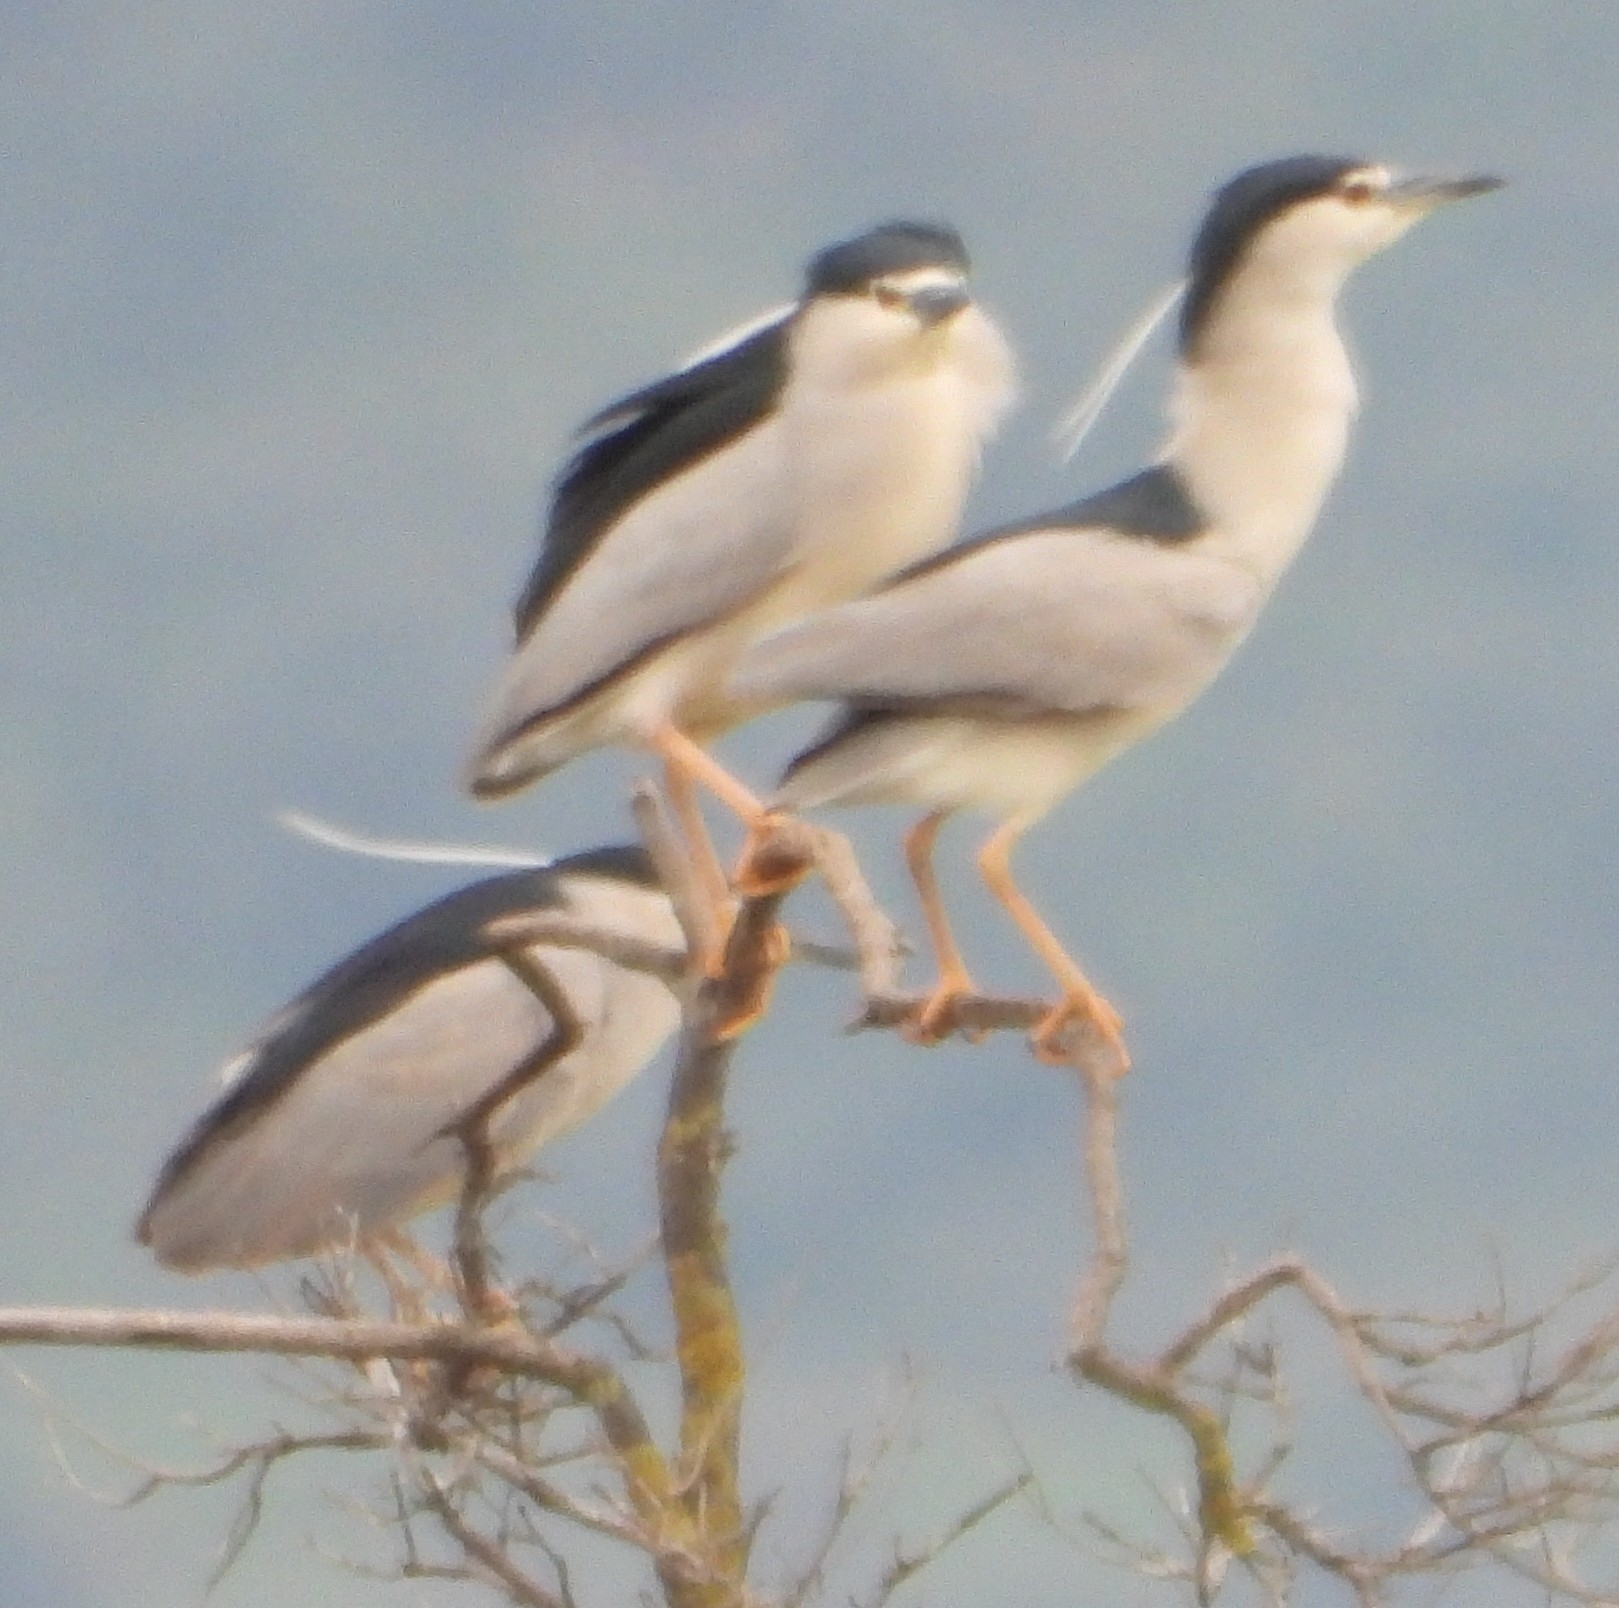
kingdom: Animalia
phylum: Chordata
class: Aves
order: Pelecaniformes
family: Ardeidae
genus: Nycticorax
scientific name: Nycticorax nycticorax
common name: Black-crowned night heron
